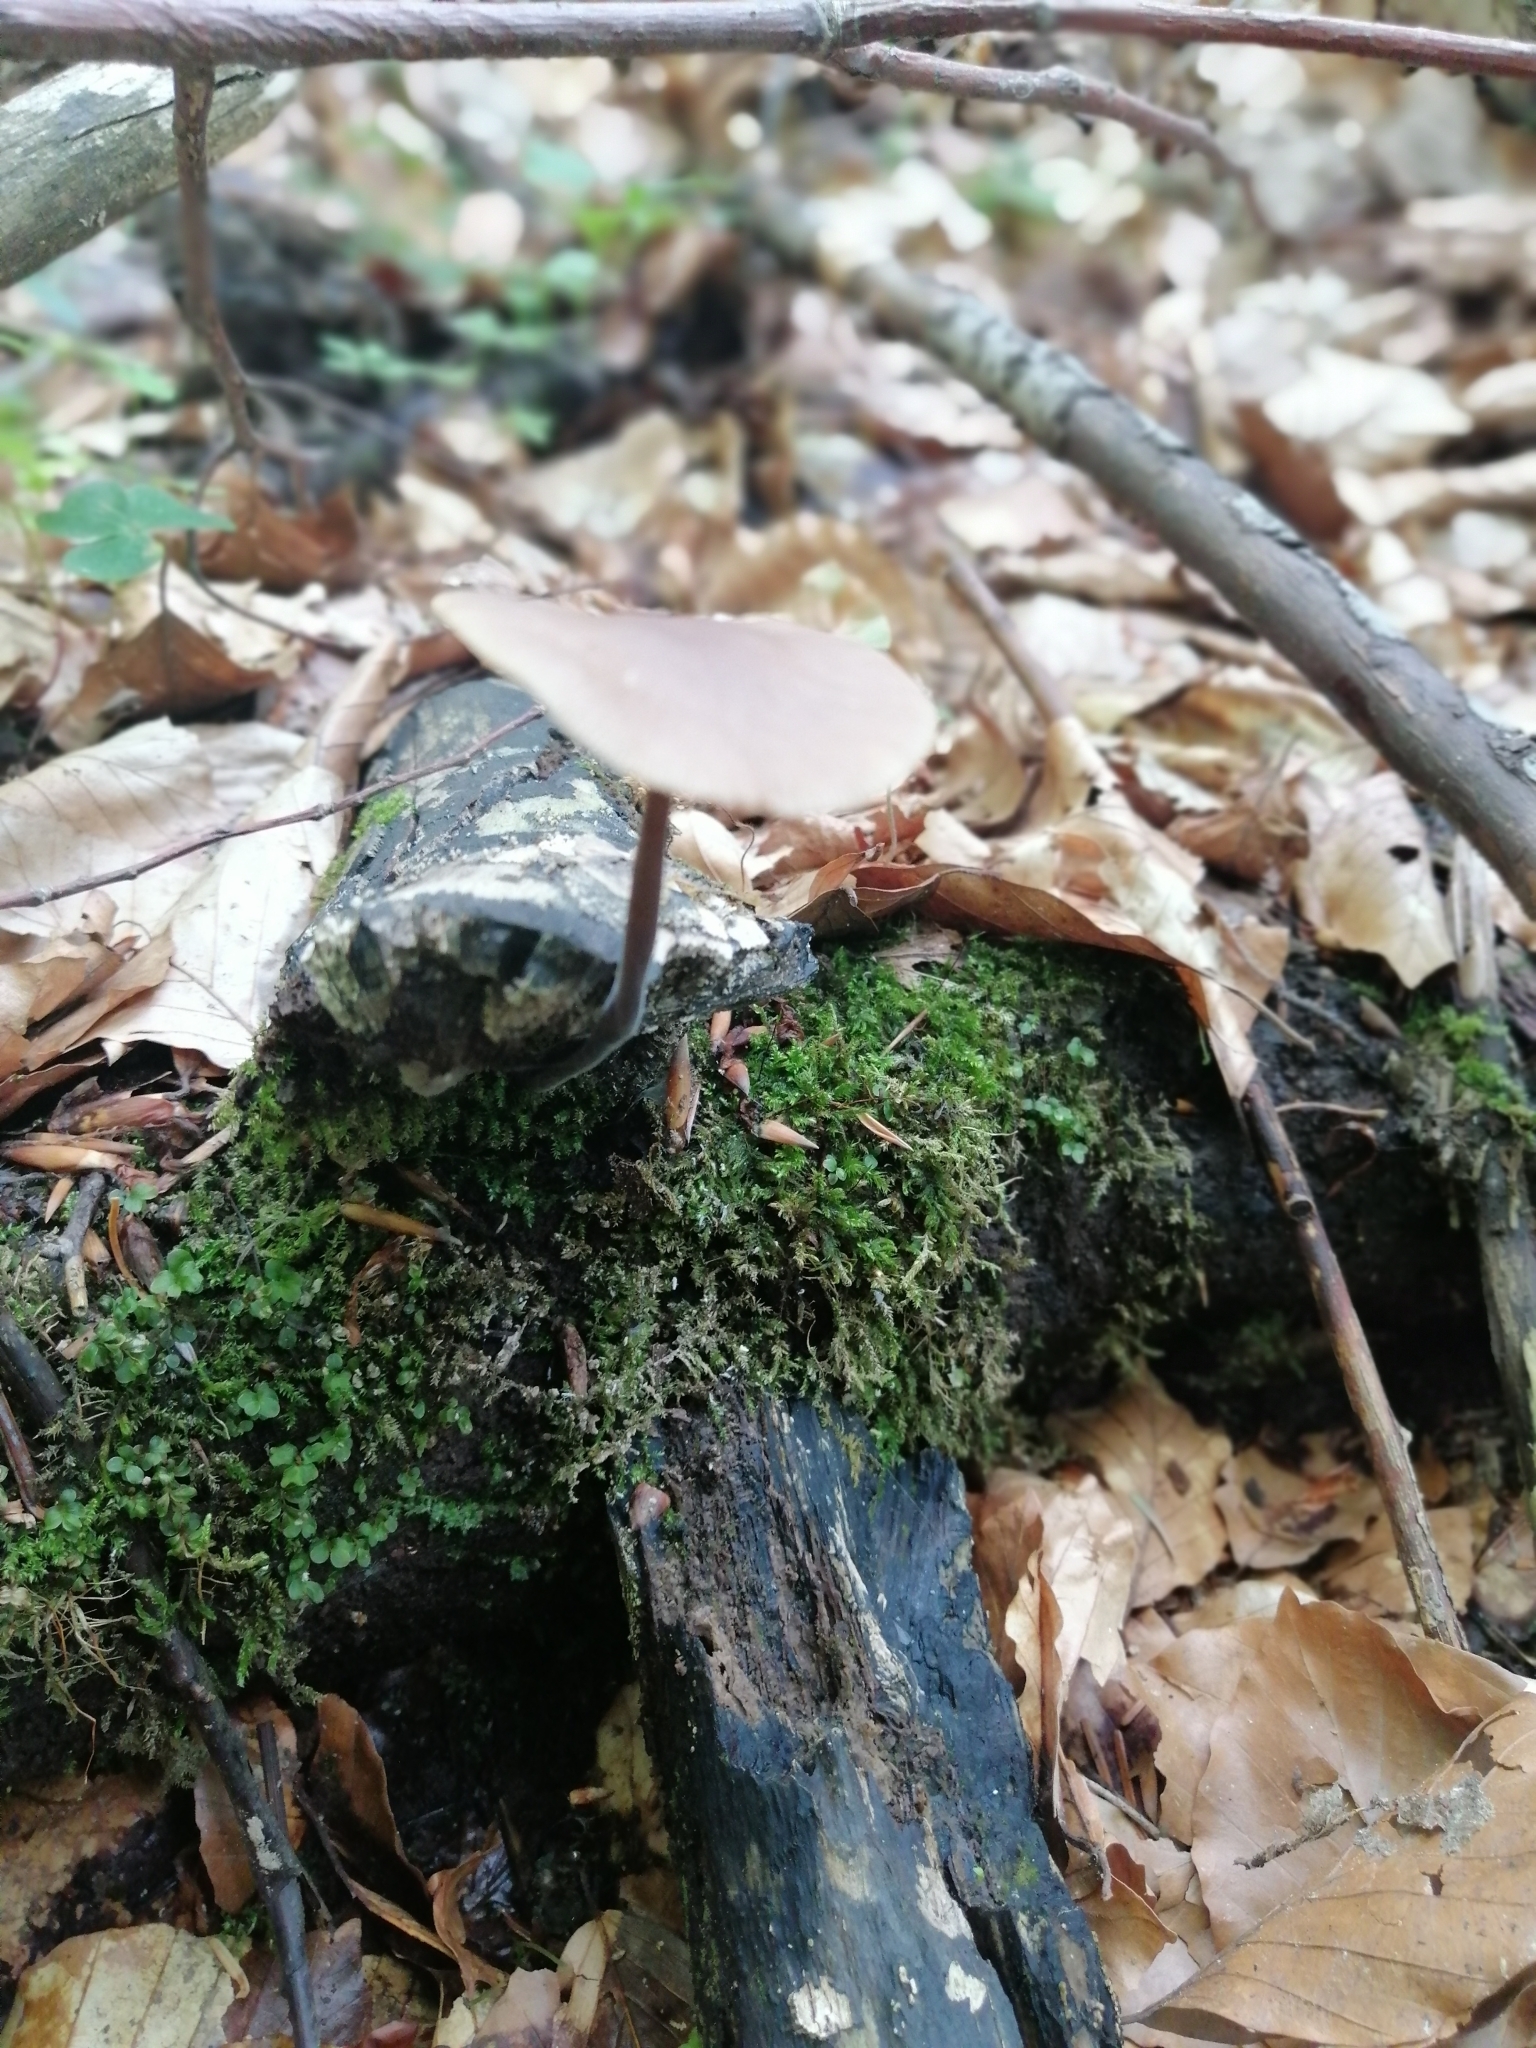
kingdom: Fungi
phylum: Basidiomycota
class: Agaricomycetes
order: Agaricales
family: Omphalotaceae
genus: Mycetinis
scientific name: Mycetinis alliaceus
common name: Garlic parachute
